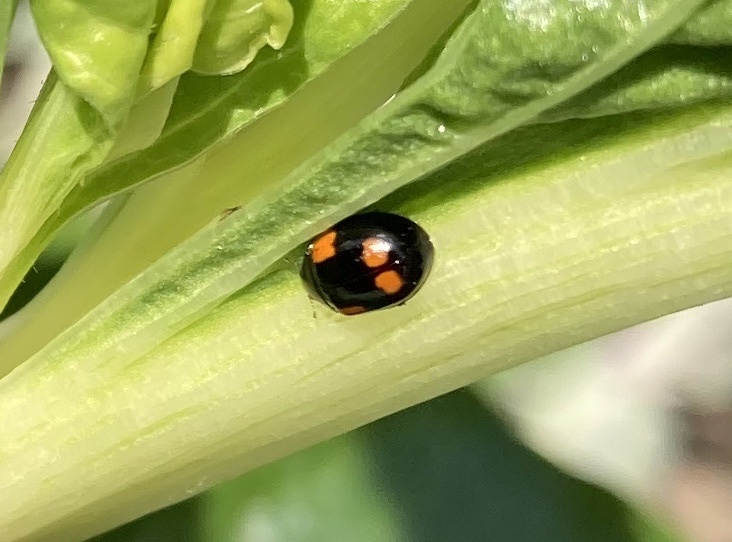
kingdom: Animalia
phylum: Arthropoda
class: Insecta
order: Coleoptera
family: Coccinellidae
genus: Adalia
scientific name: Adalia bipunctata
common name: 2-spot ladybird
